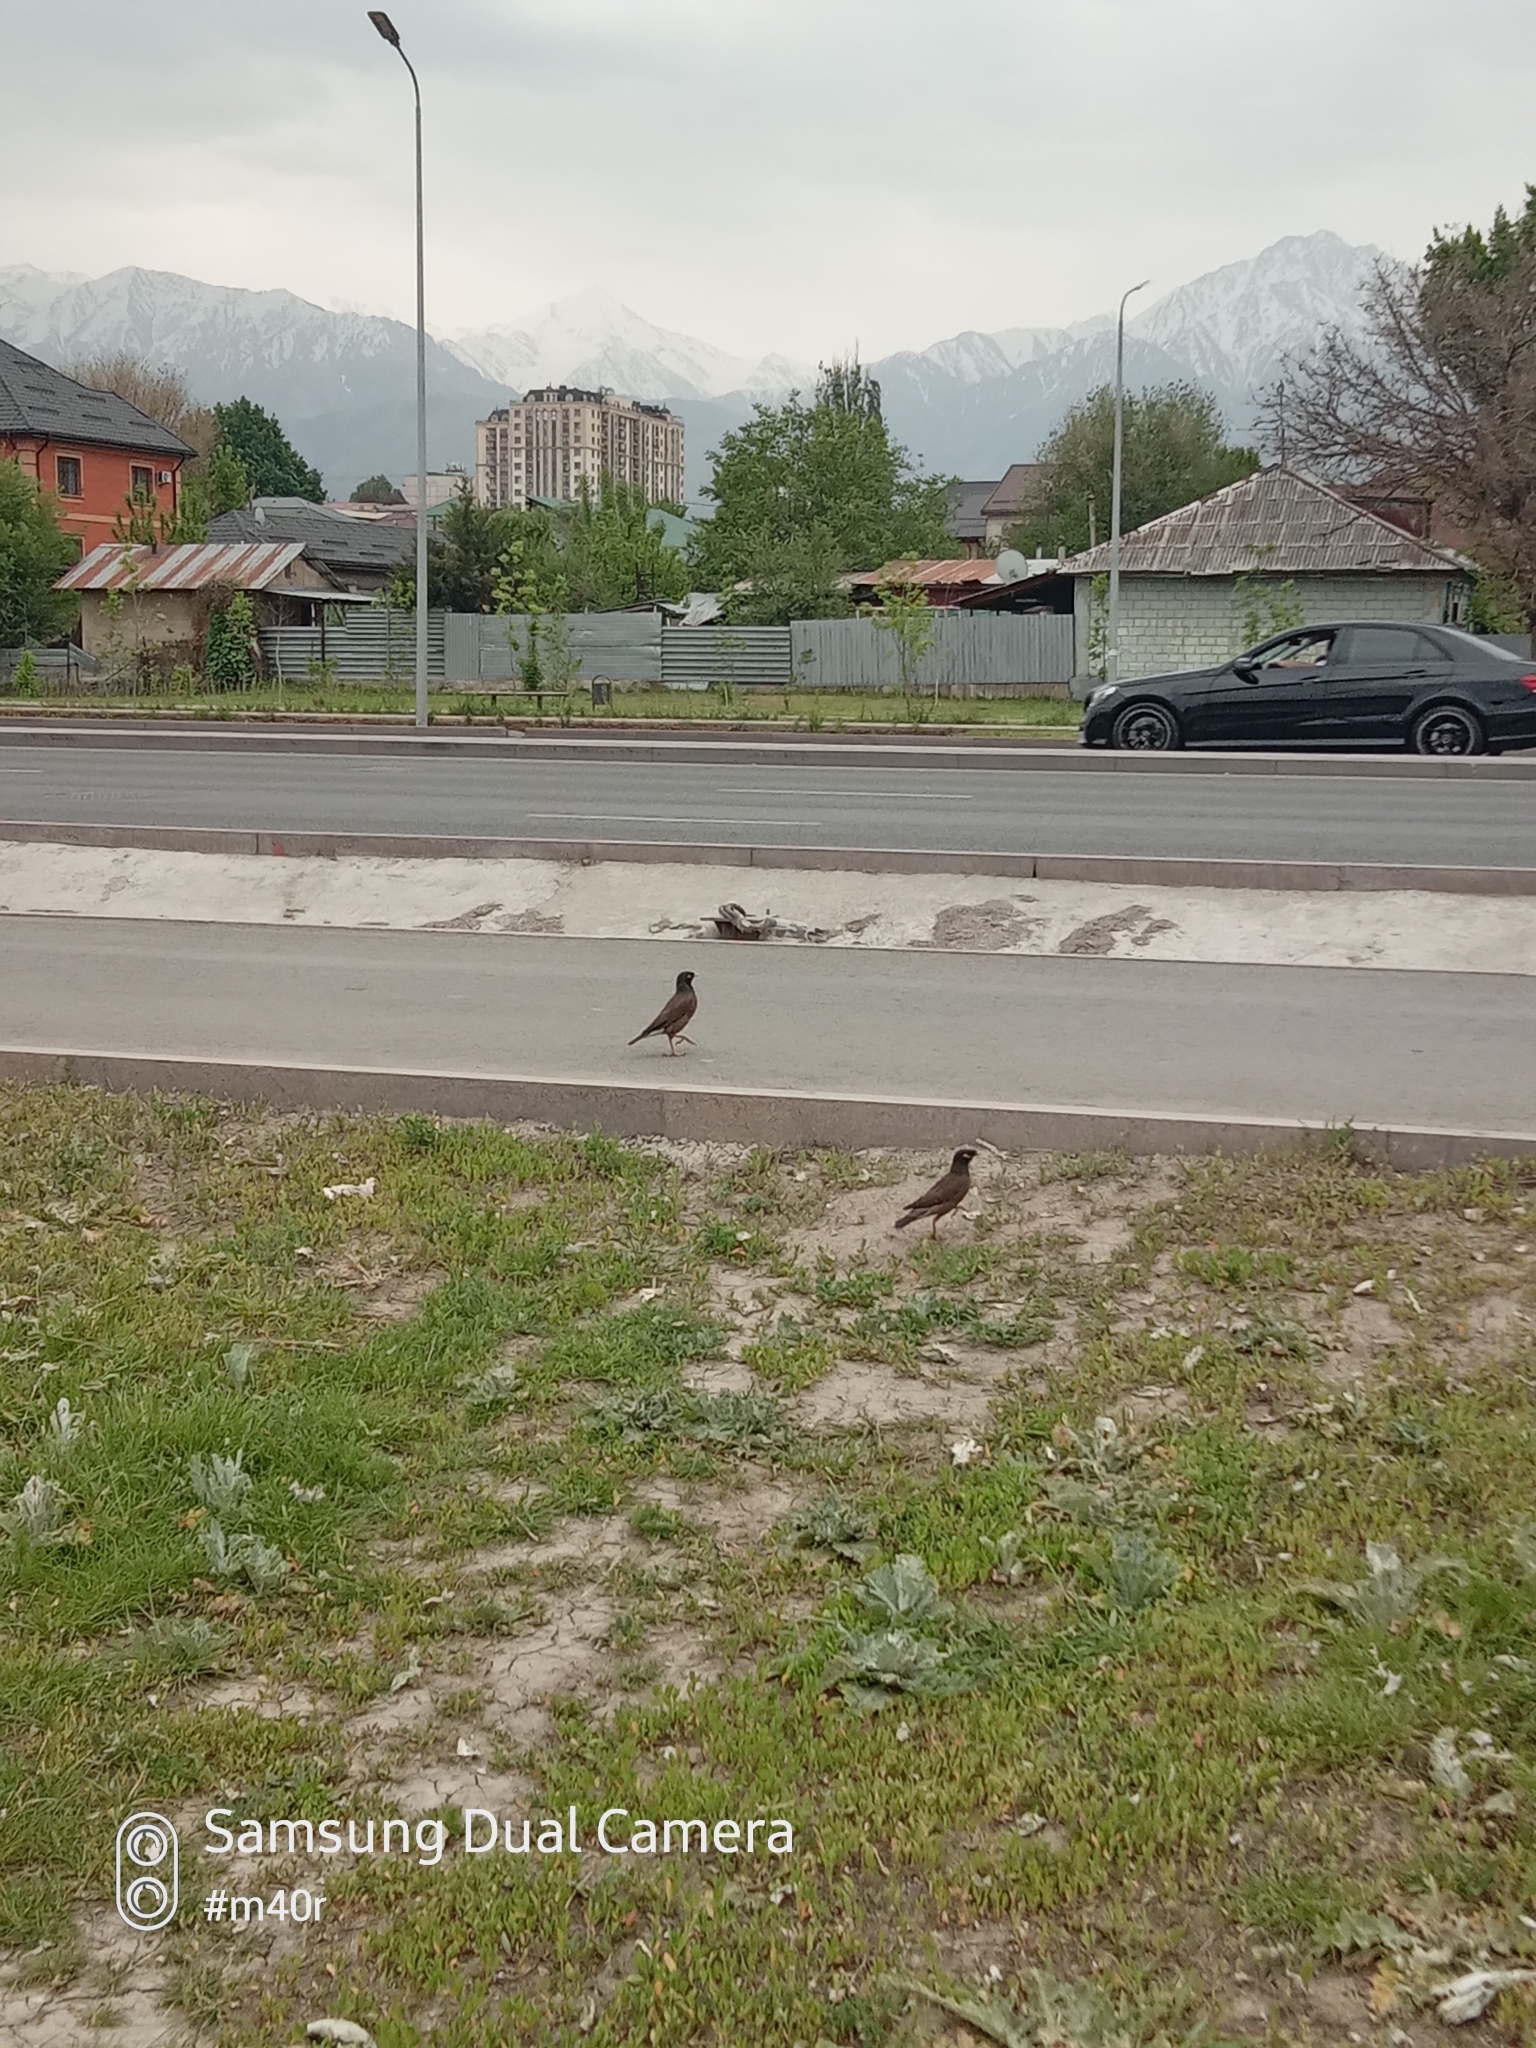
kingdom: Animalia
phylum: Chordata
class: Aves
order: Passeriformes
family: Sturnidae
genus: Acridotheres
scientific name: Acridotheres tristis
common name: Common myna
